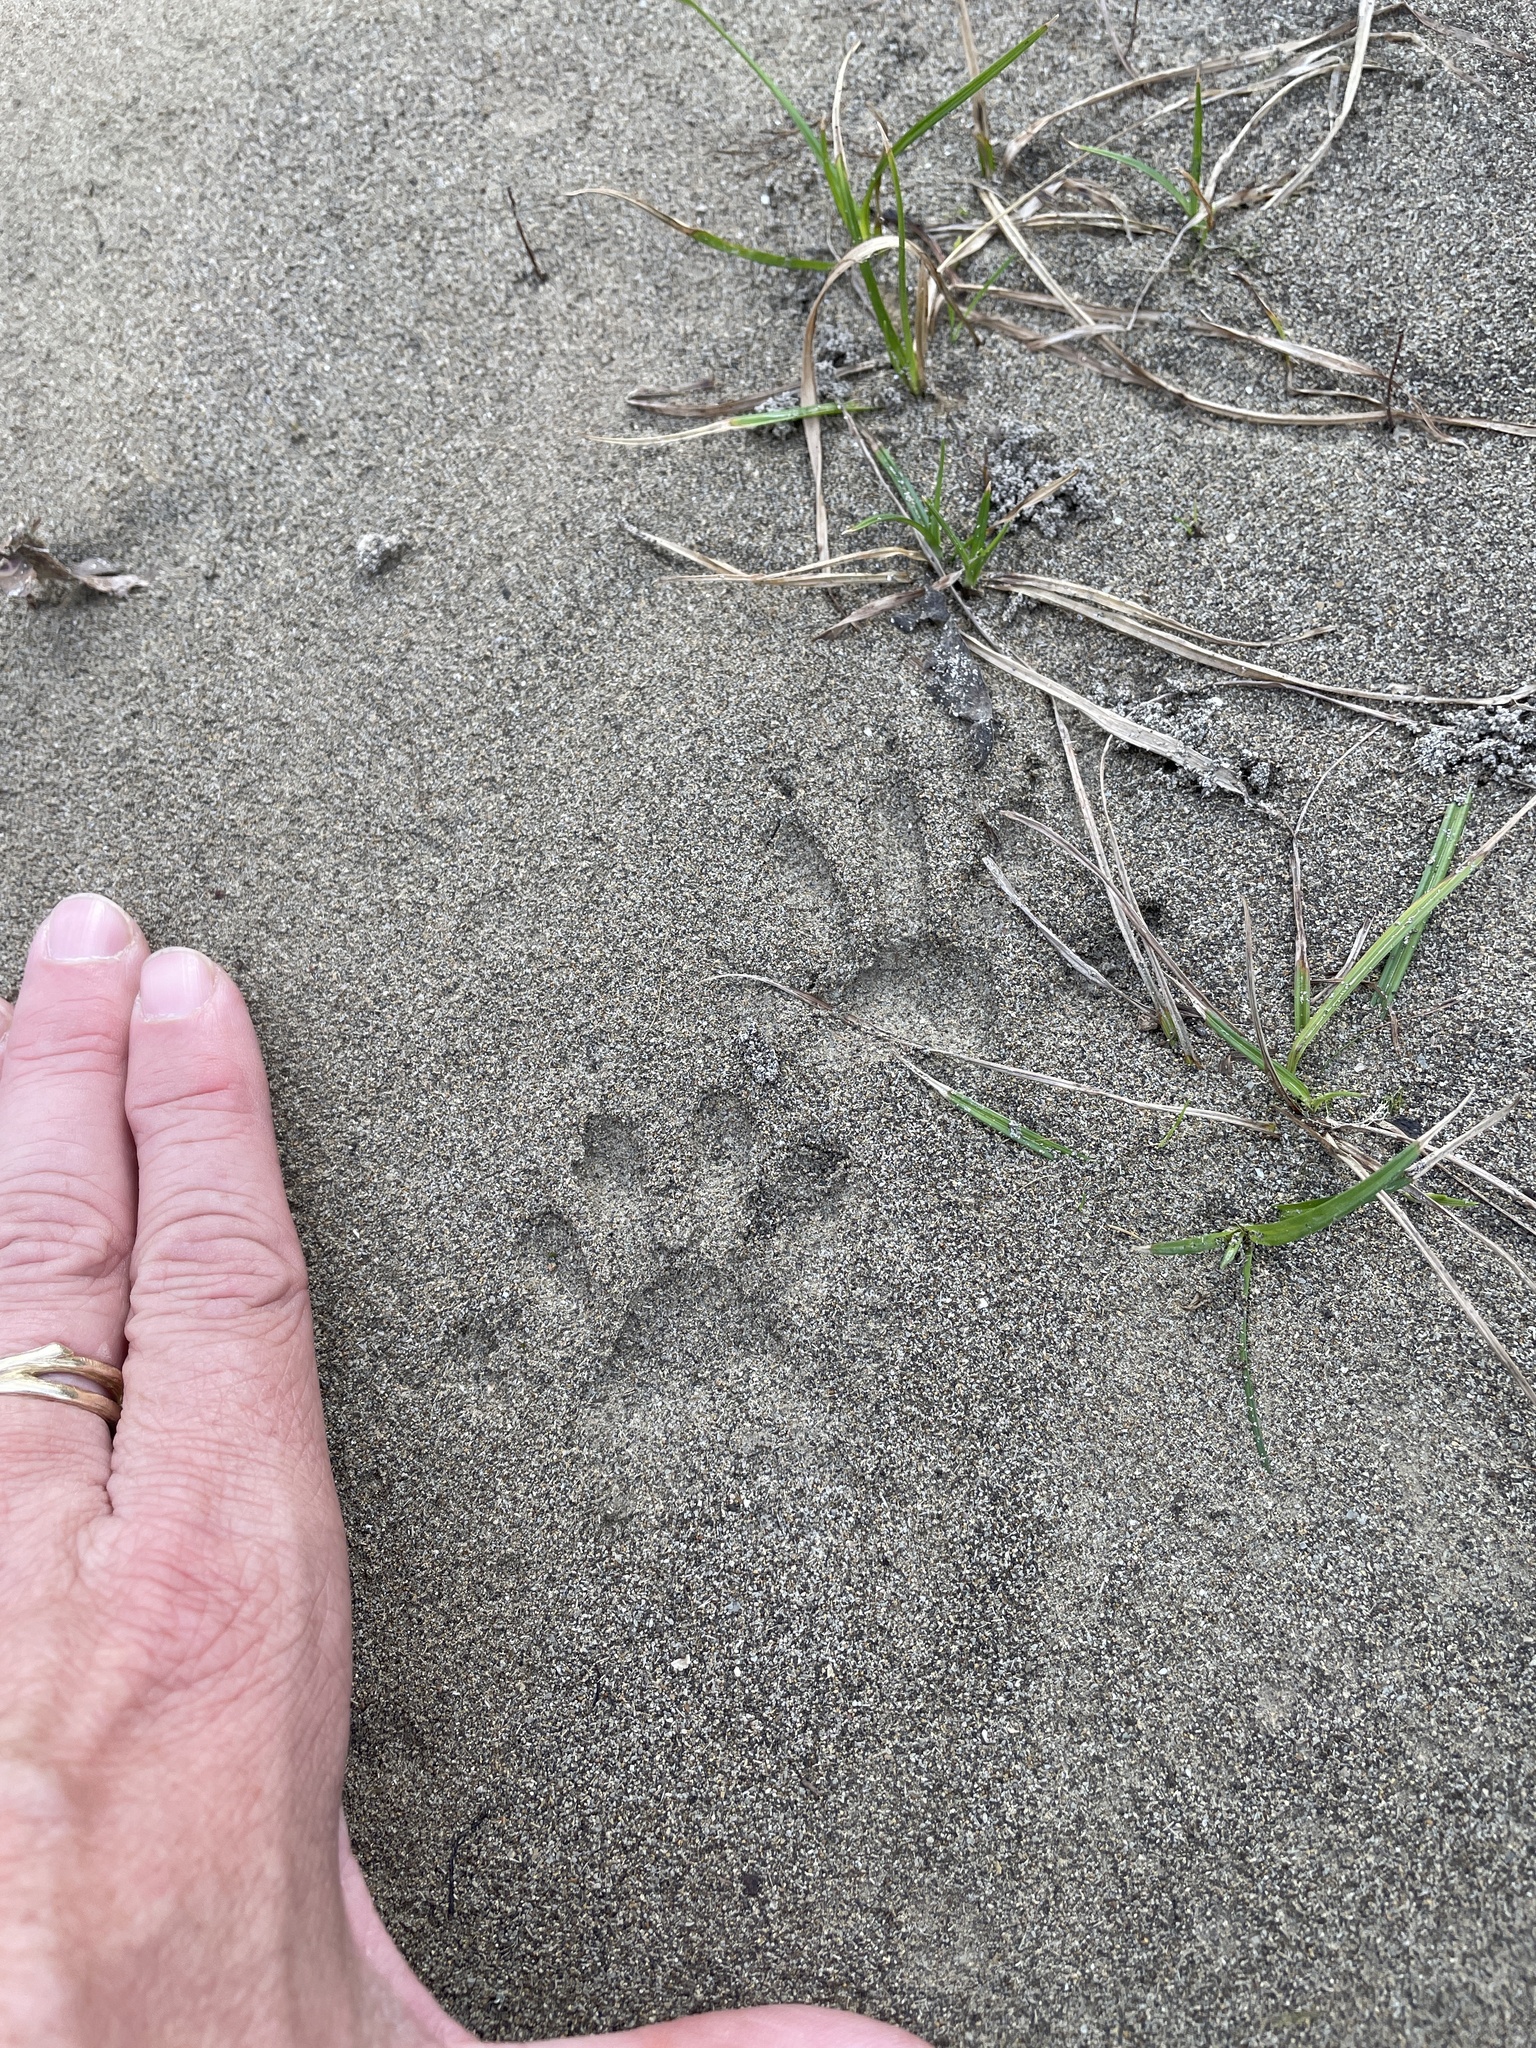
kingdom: Animalia
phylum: Chordata
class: Mammalia
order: Carnivora
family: Procyonidae
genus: Procyon
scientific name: Procyon lotor
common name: Raccoon
